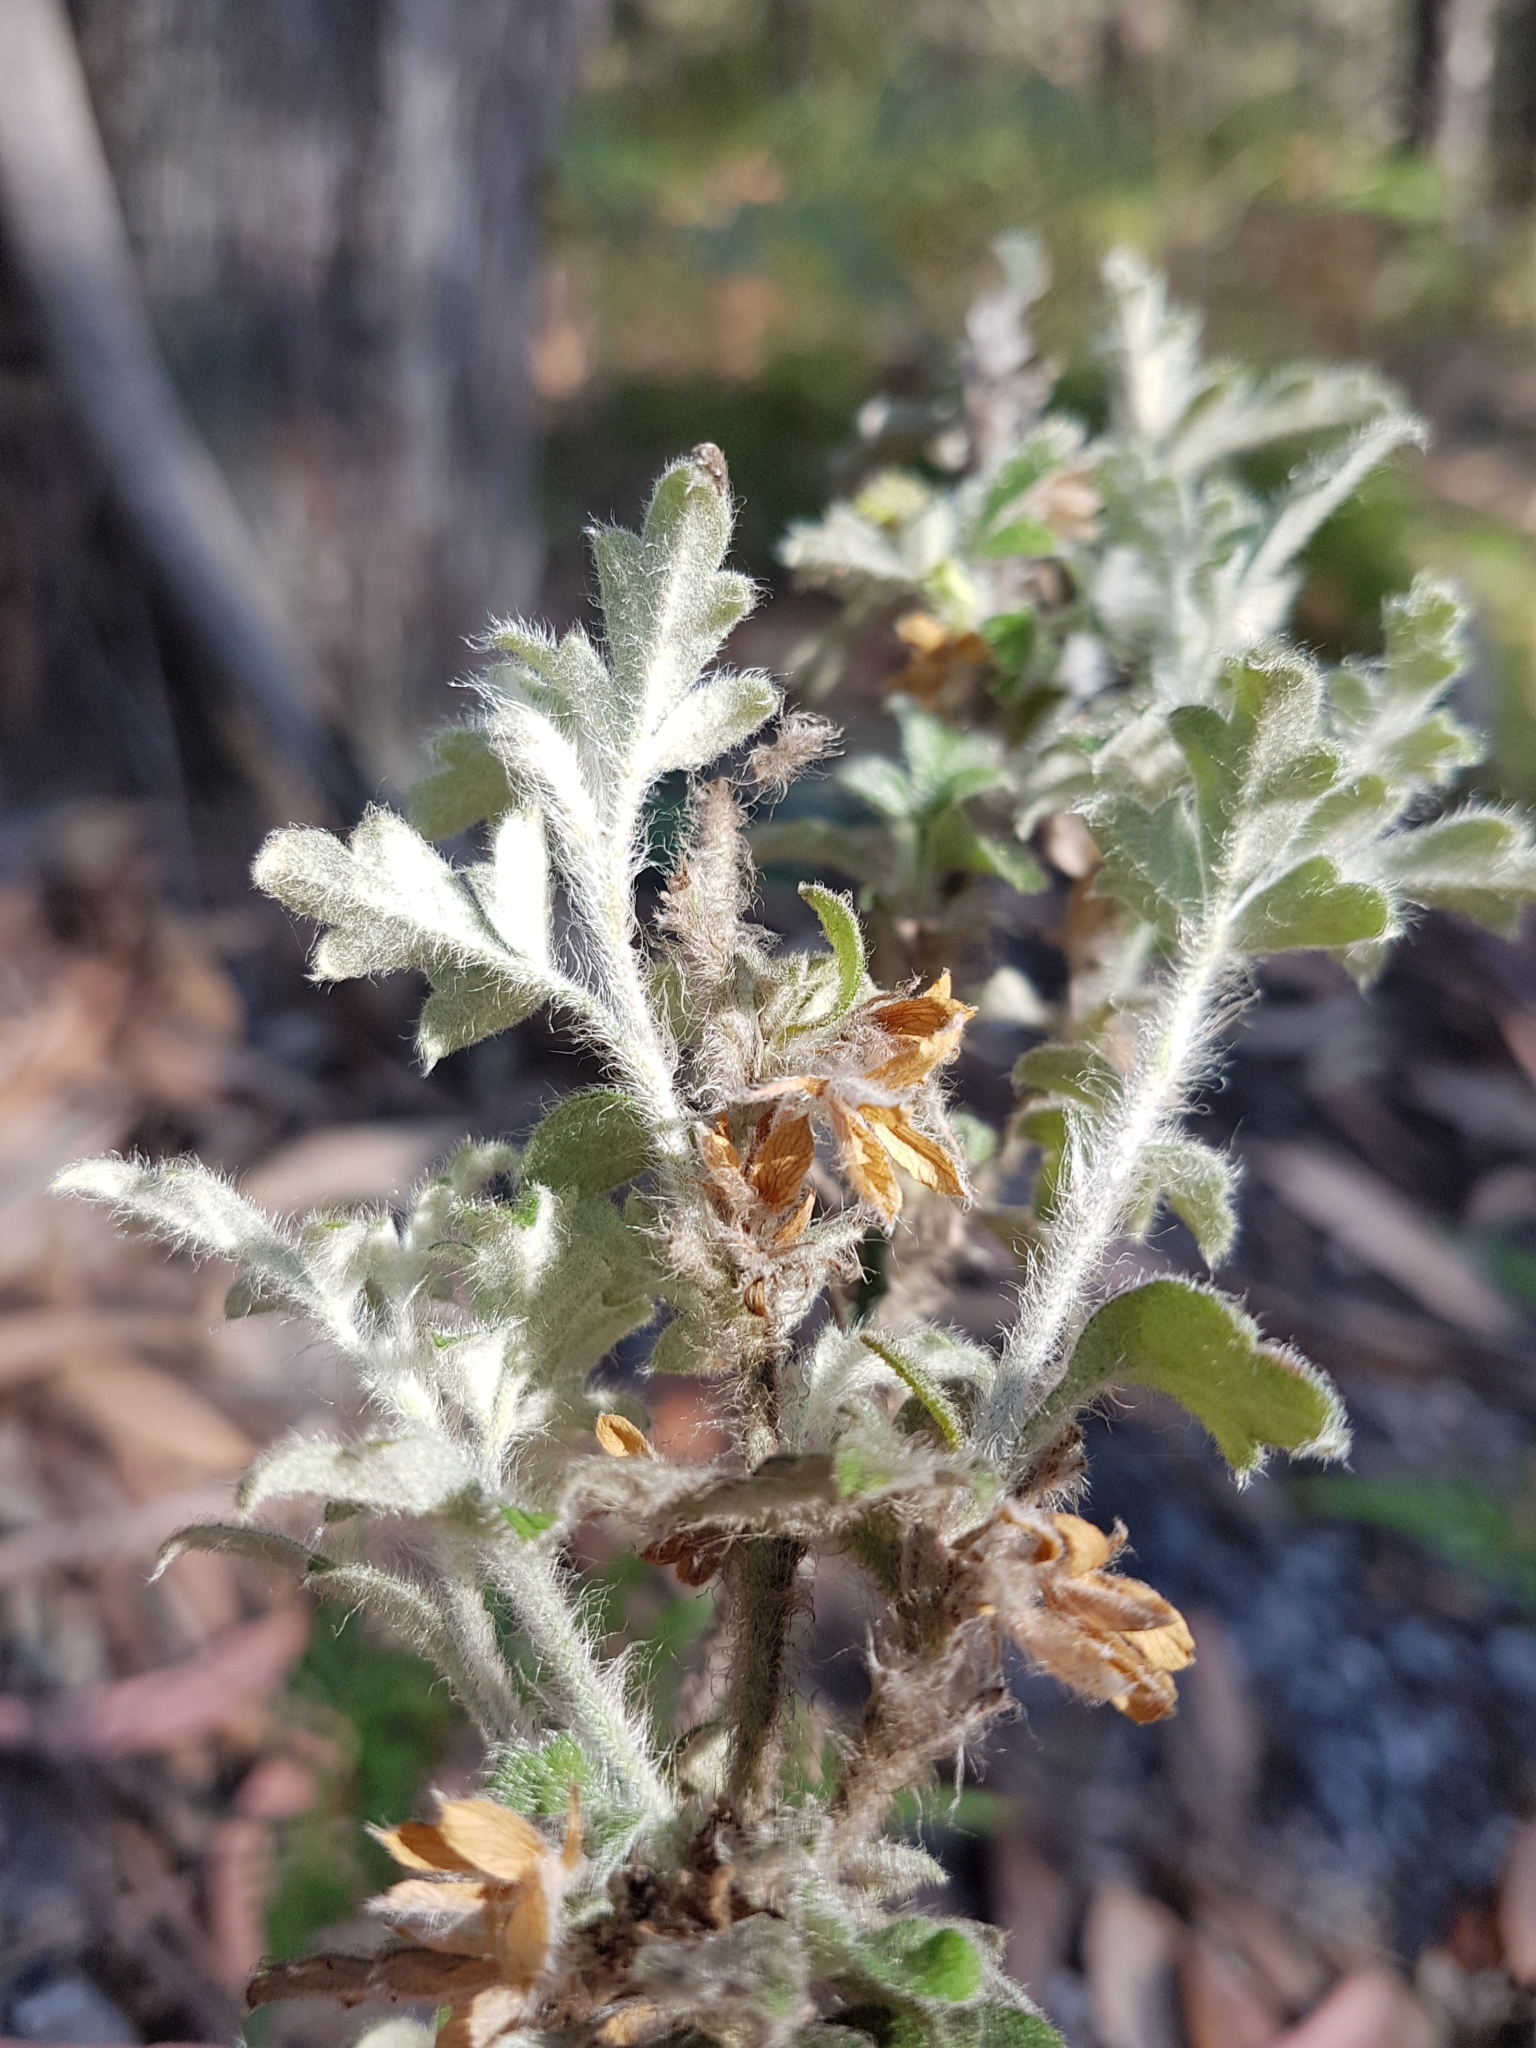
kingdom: Plantae
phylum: Tracheophyta
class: Magnoliopsida
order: Apiales
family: Apiaceae
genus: Xanthosia
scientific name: Xanthosia pilosa
